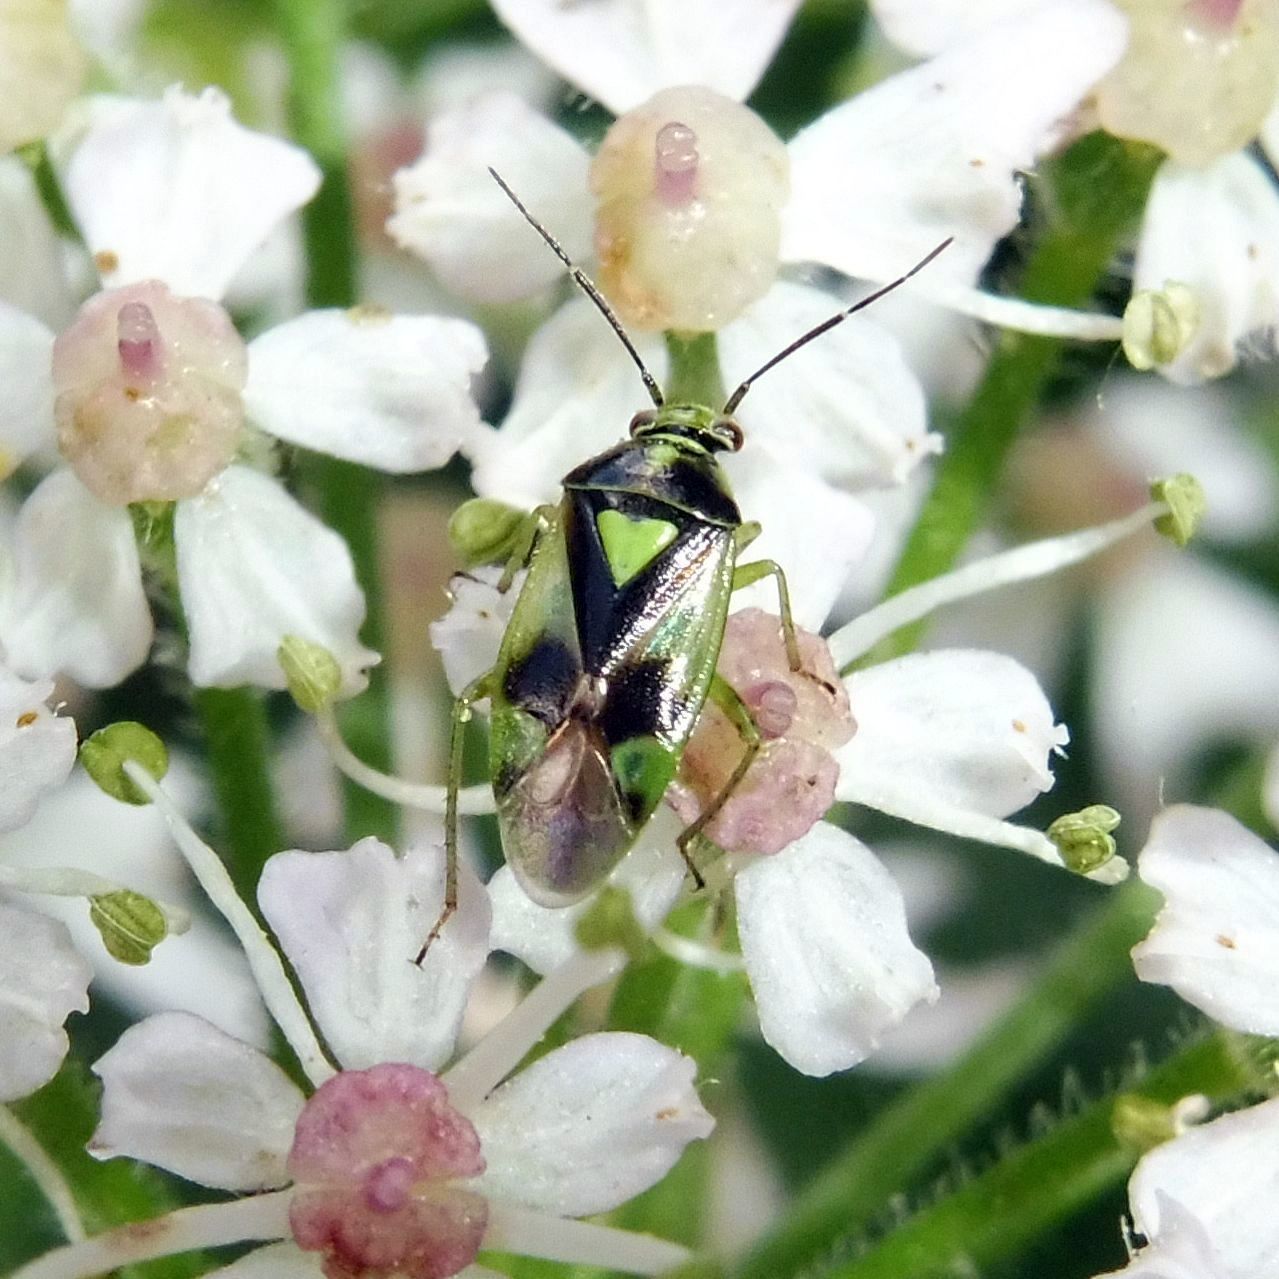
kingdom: Animalia
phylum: Arthropoda
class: Insecta
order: Hemiptera
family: Miridae
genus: Orthops
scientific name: Orthops campestris
